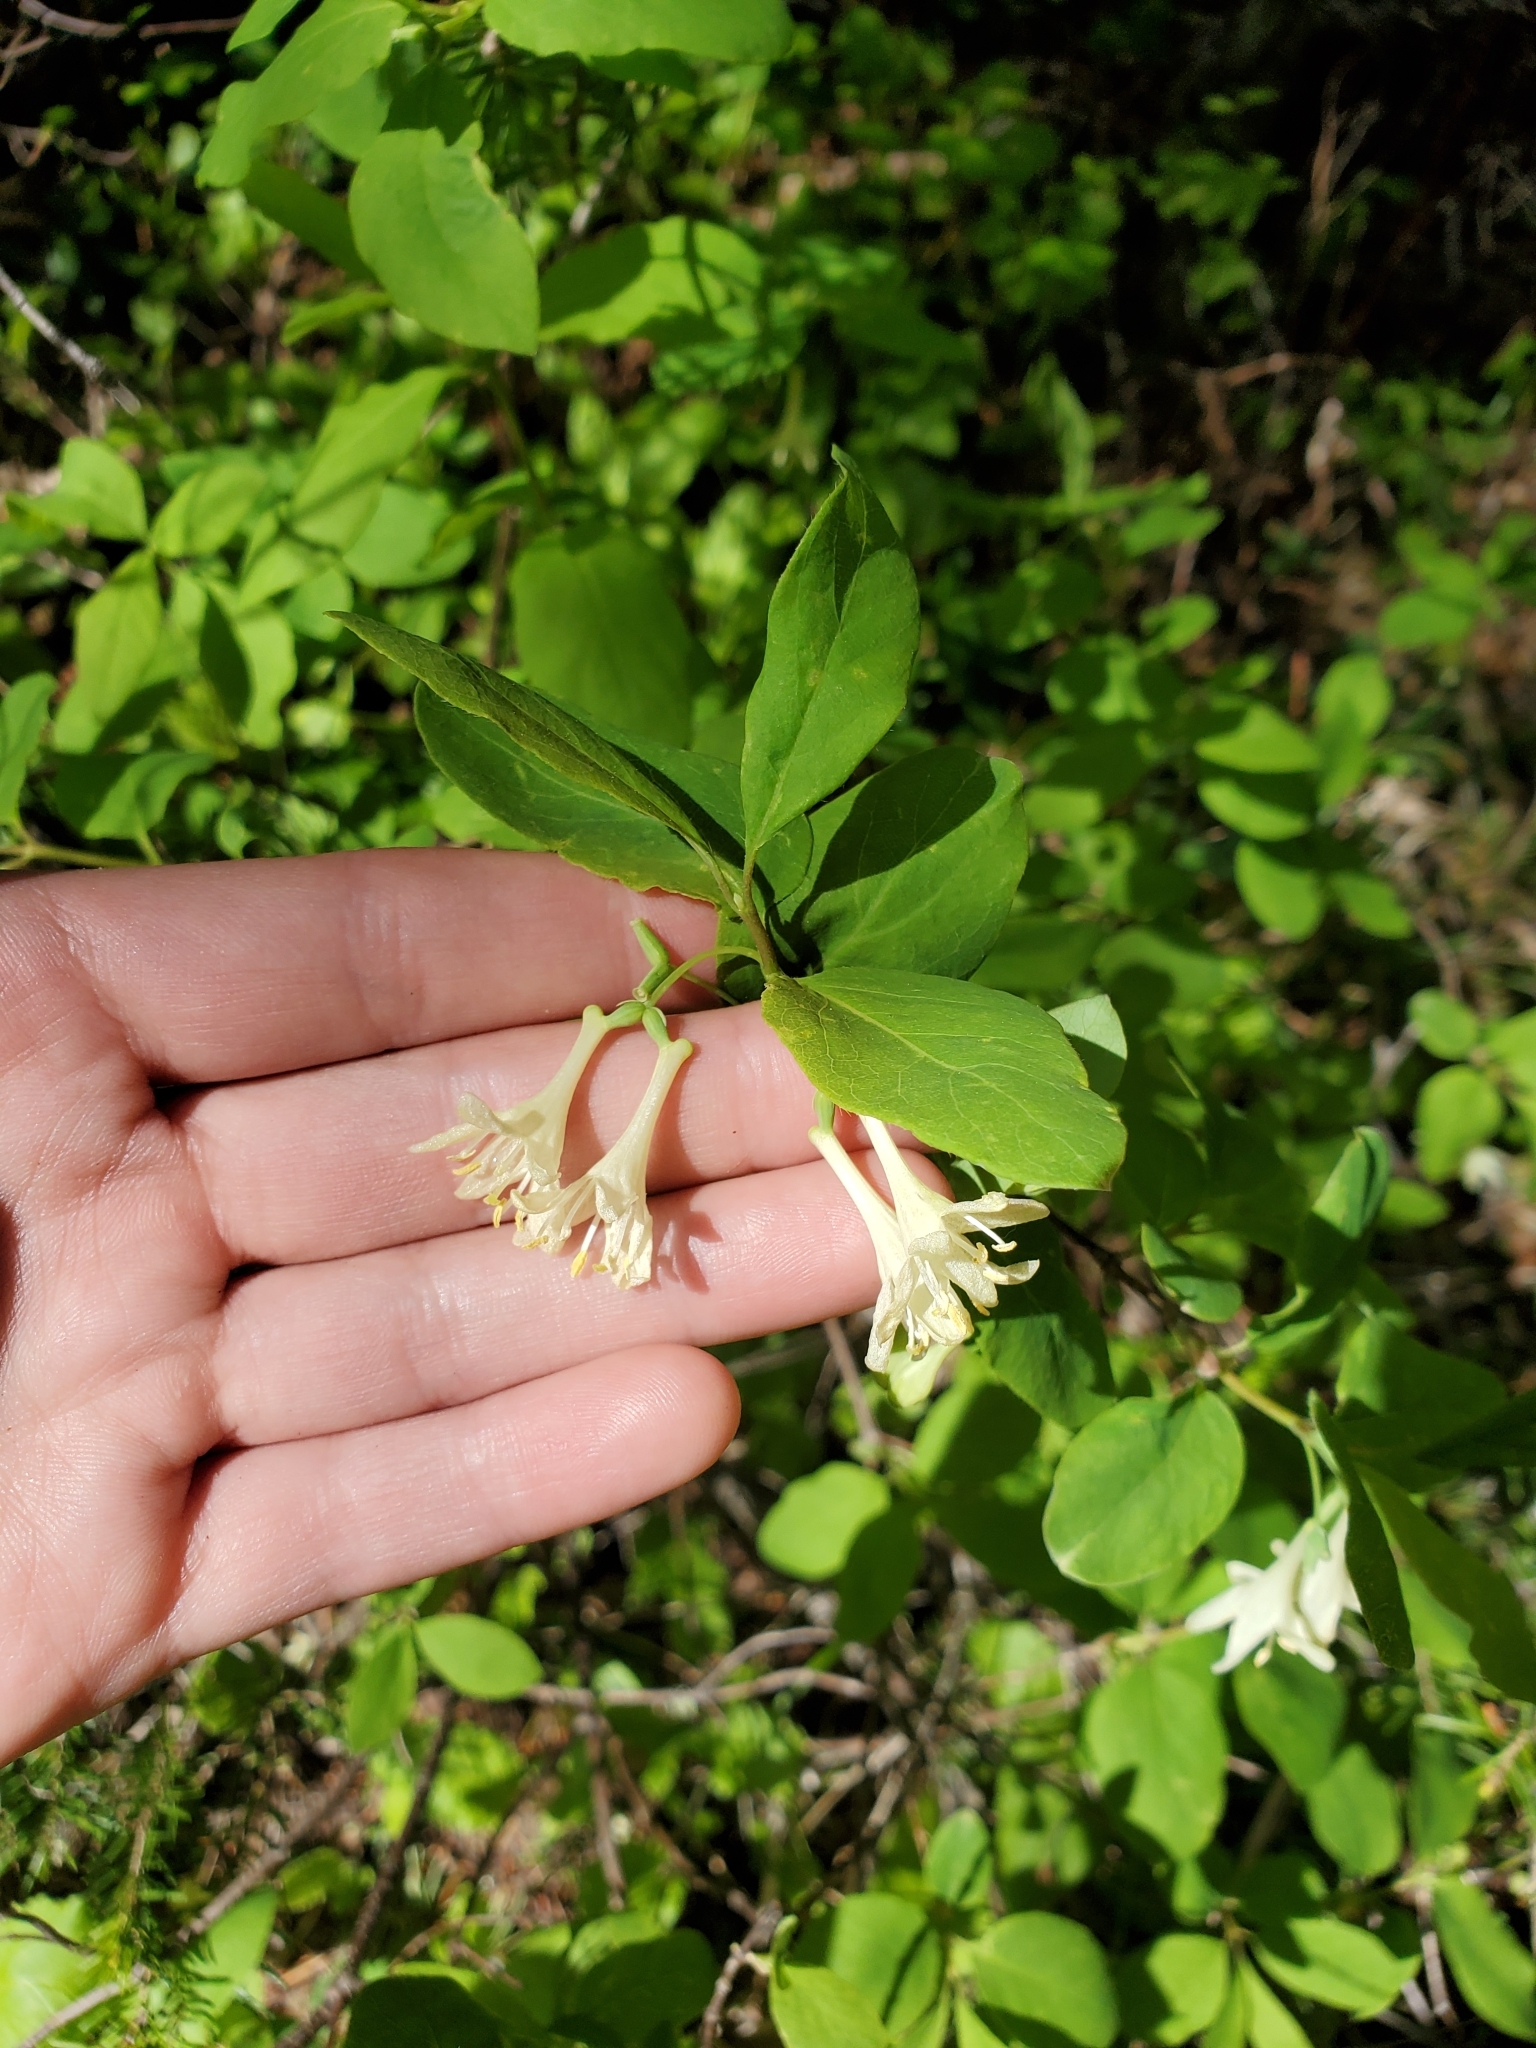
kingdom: Plantae
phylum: Tracheophyta
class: Magnoliopsida
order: Dipsacales
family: Caprifoliaceae
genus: Lonicera
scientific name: Lonicera utahensis
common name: Utah honeysuckle
